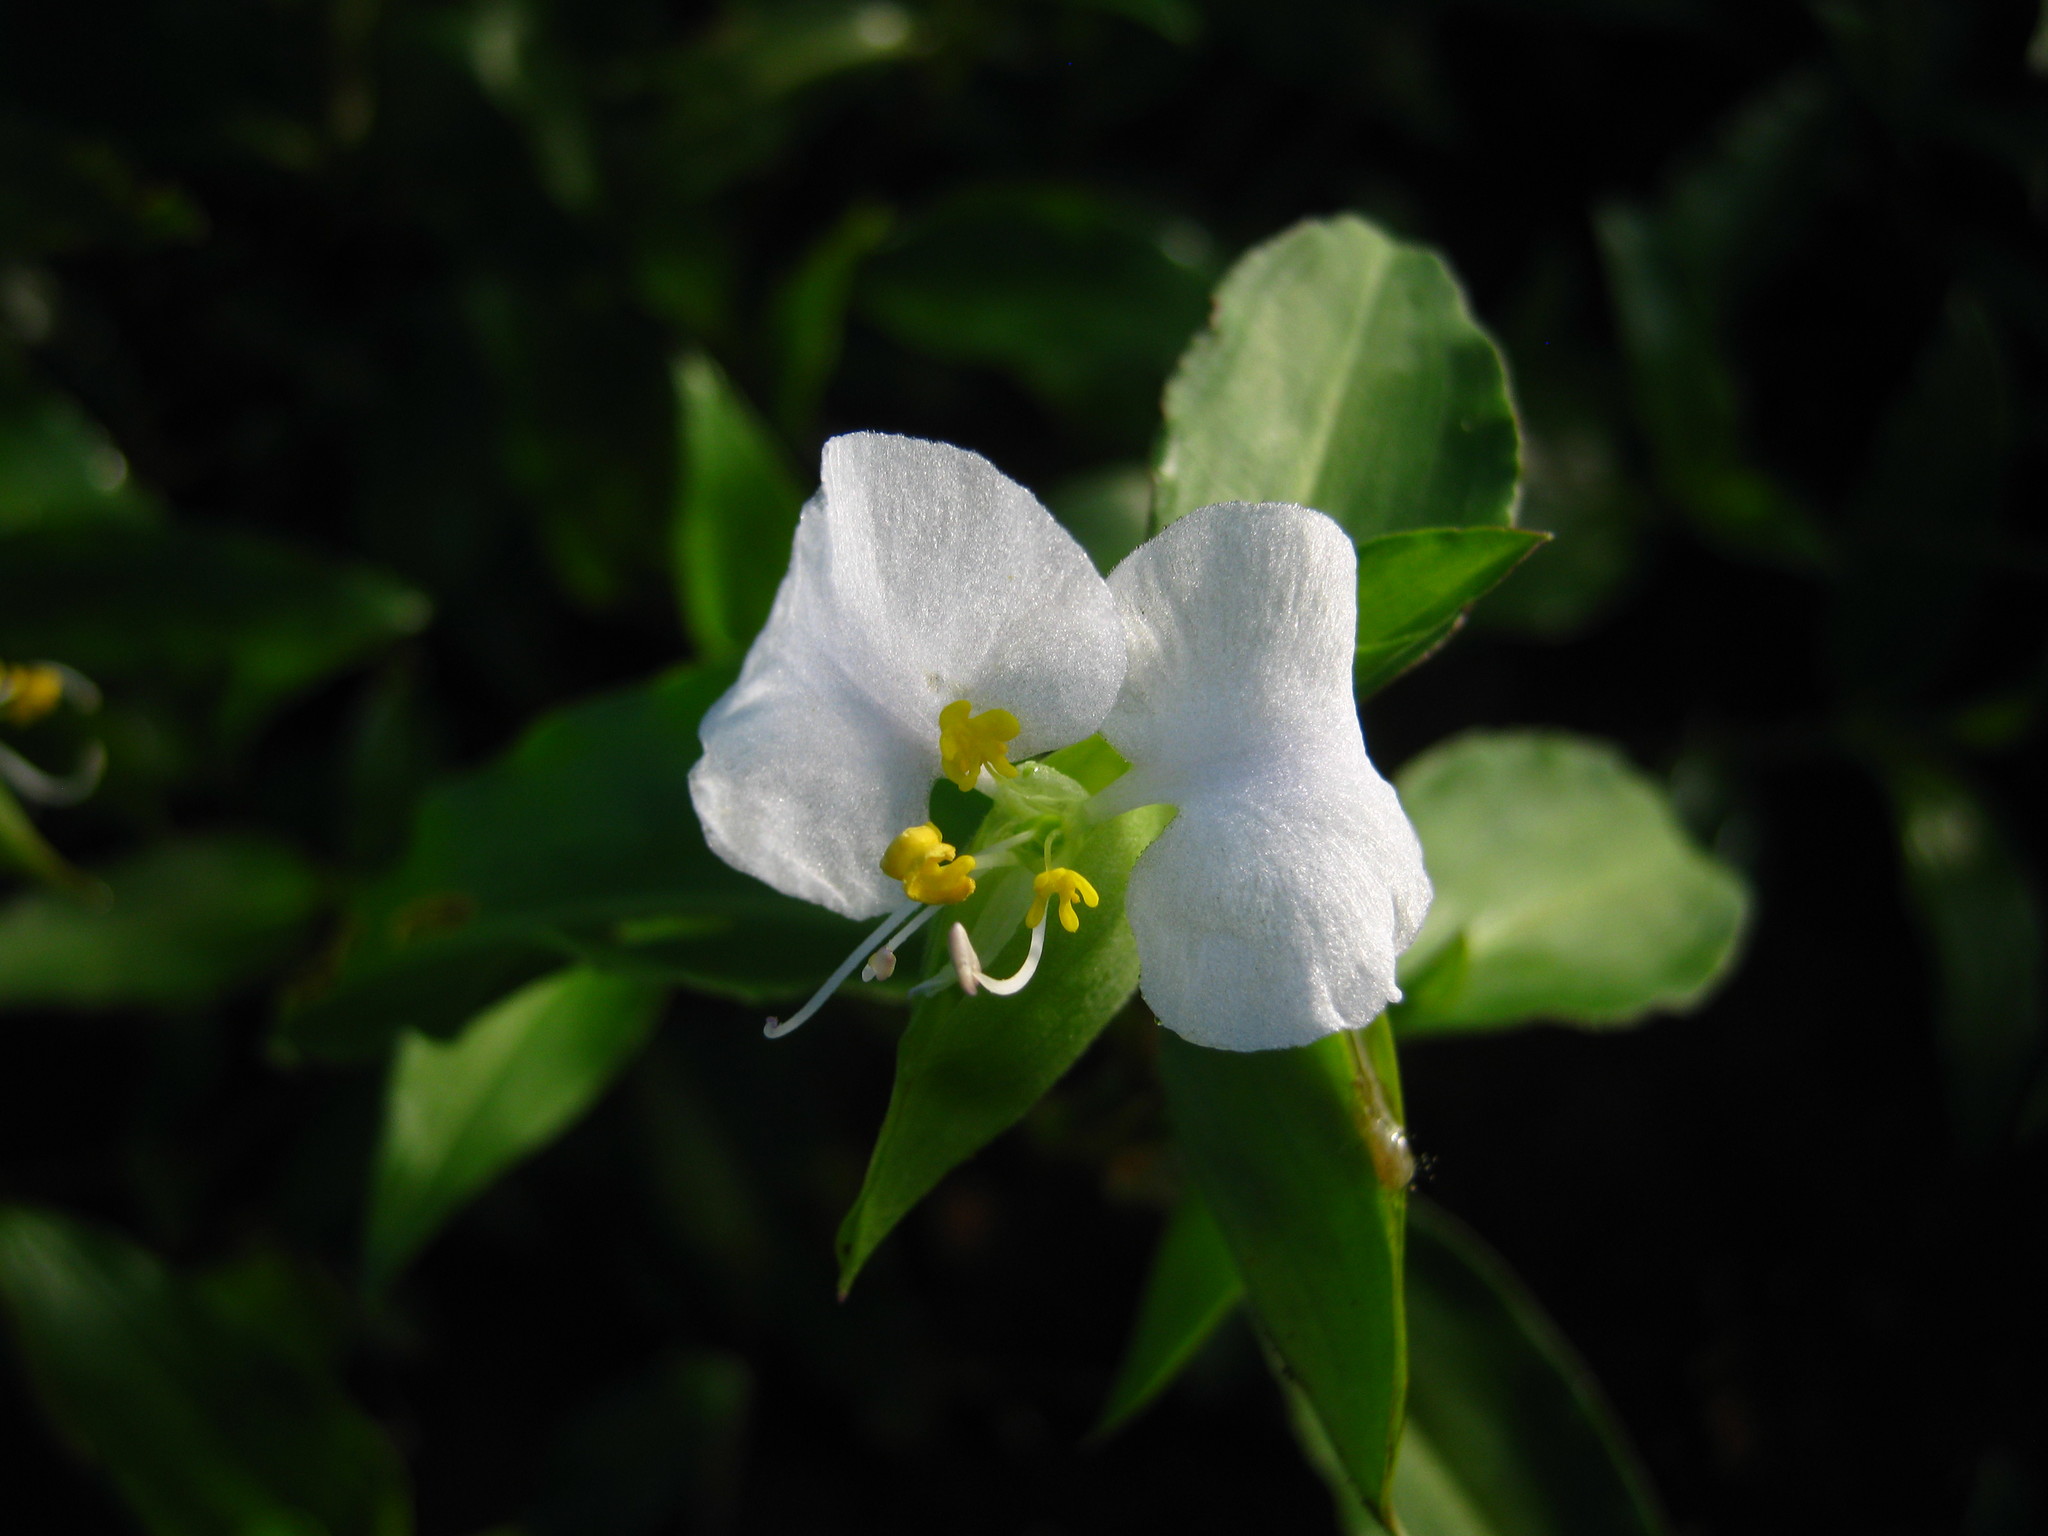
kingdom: Plantae
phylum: Tracheophyta
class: Liliopsida
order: Commelinales
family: Commelinaceae
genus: Commelina
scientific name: Commelina erecta
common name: Blousel blommetjie
